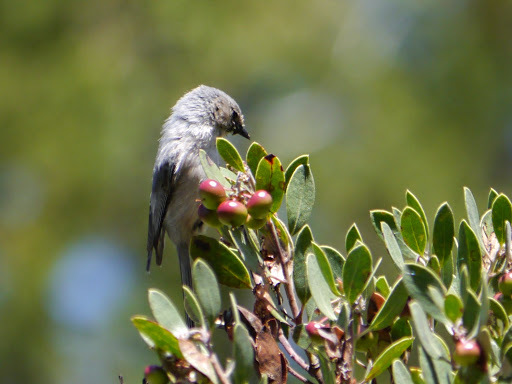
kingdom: Animalia
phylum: Chordata
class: Aves
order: Passeriformes
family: Aegithalidae
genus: Psaltriparus
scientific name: Psaltriparus minimus
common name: American bushtit
